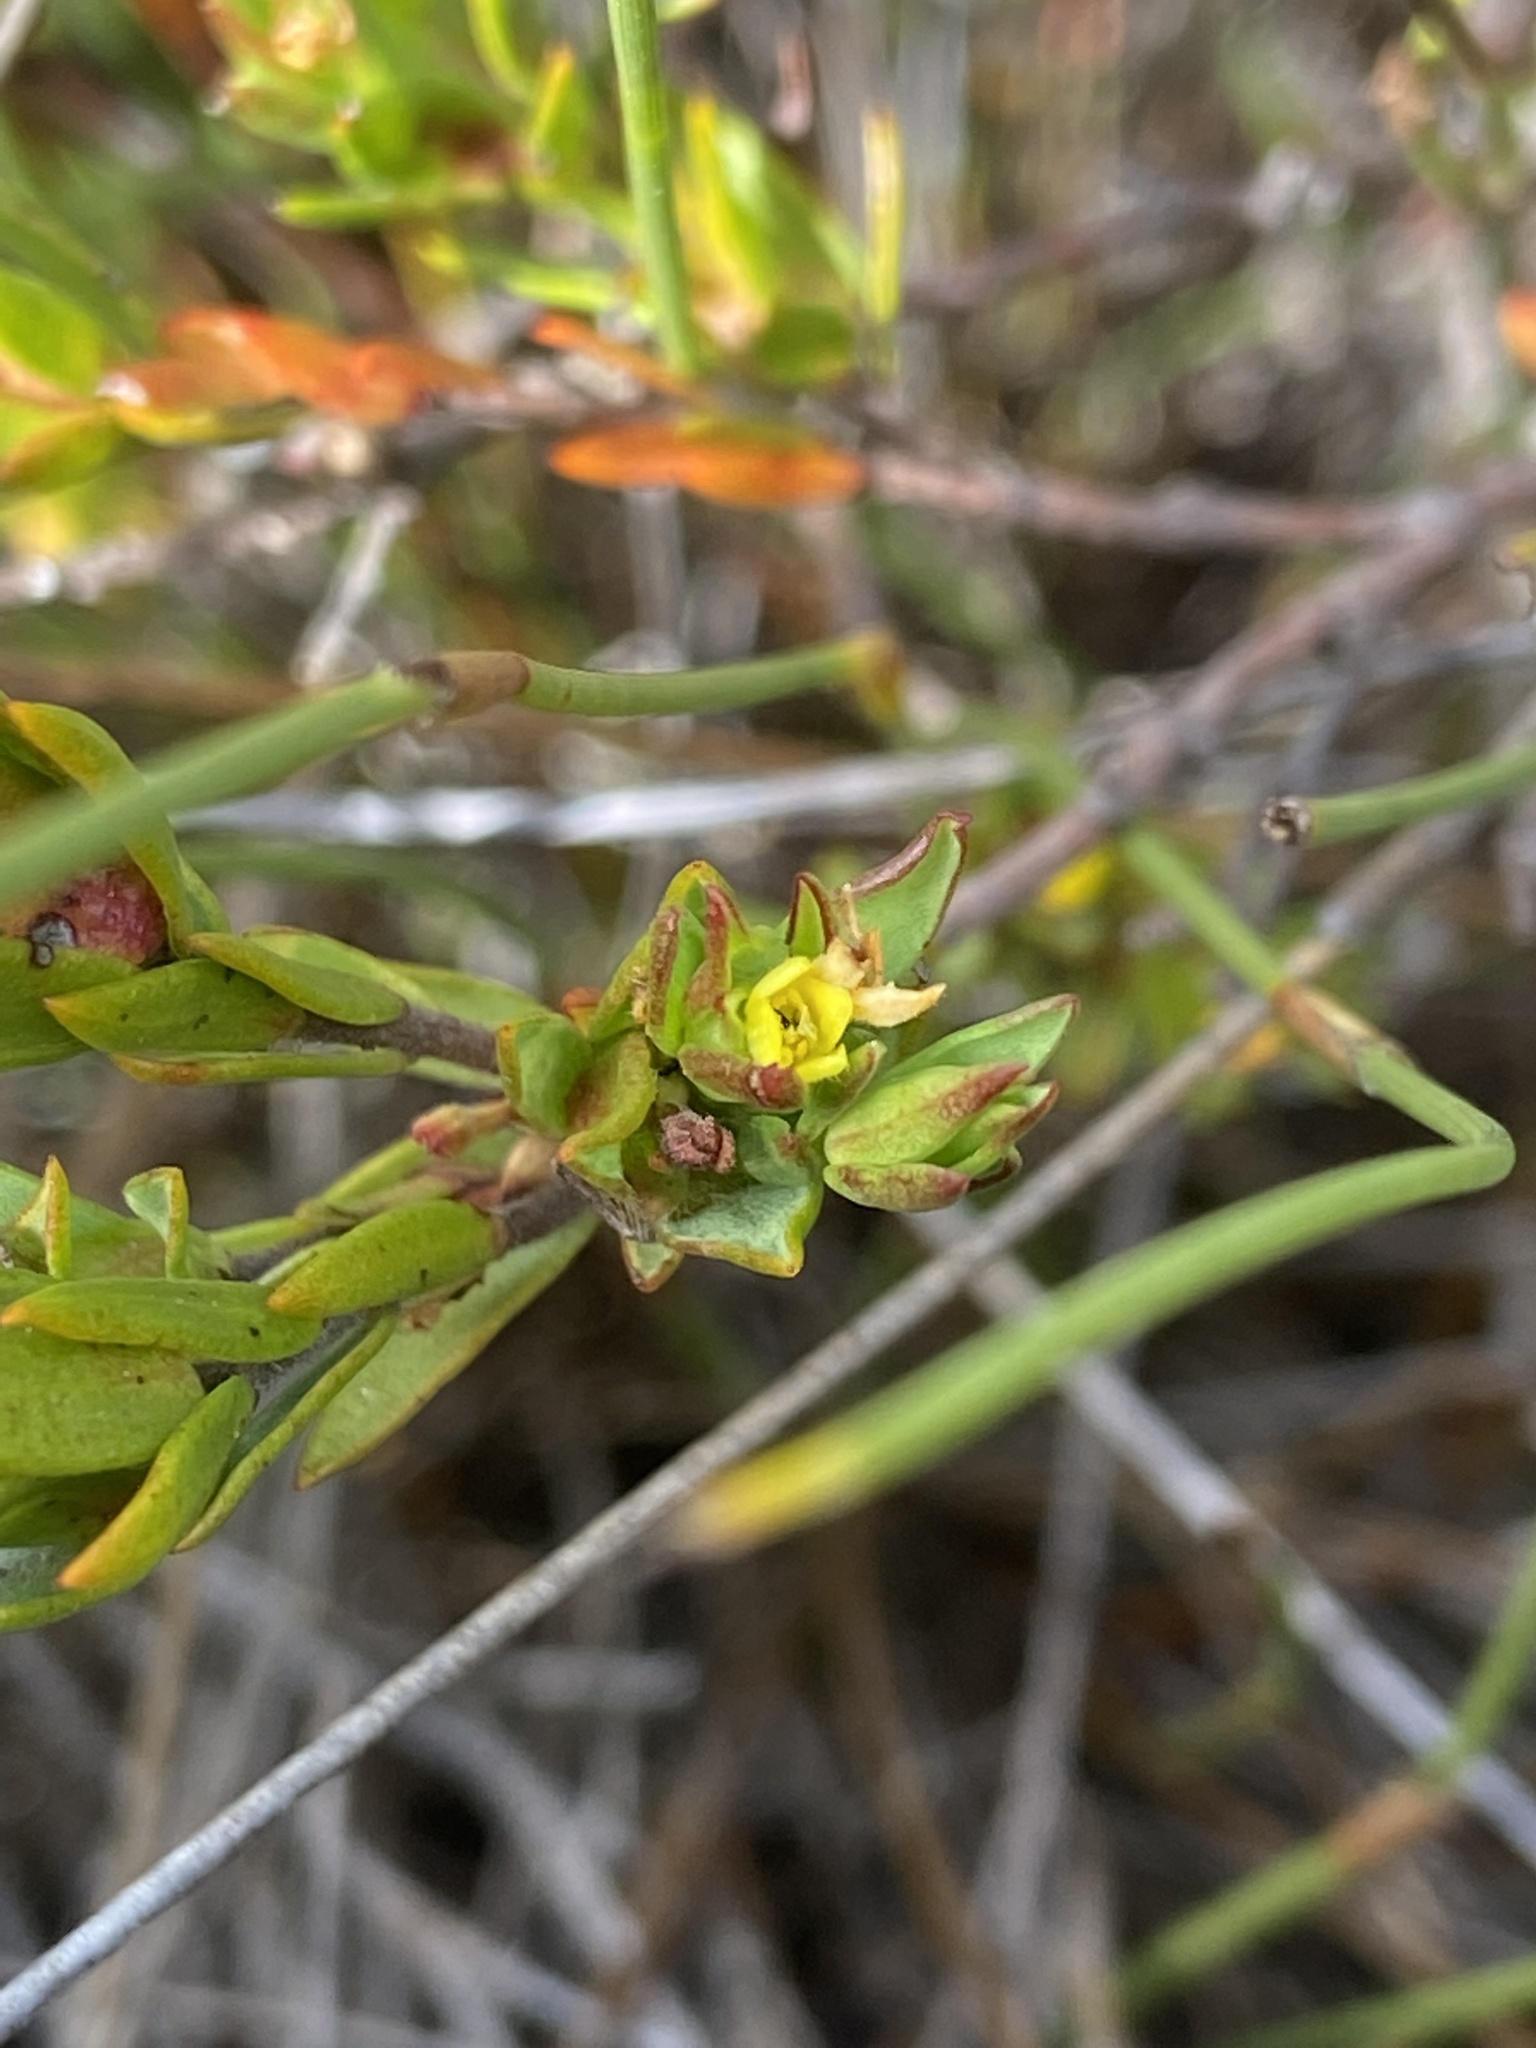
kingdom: Plantae
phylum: Tracheophyta
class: Magnoliopsida
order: Malvales
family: Thymelaeaceae
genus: Gnidia
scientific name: Gnidia juniperifolia
